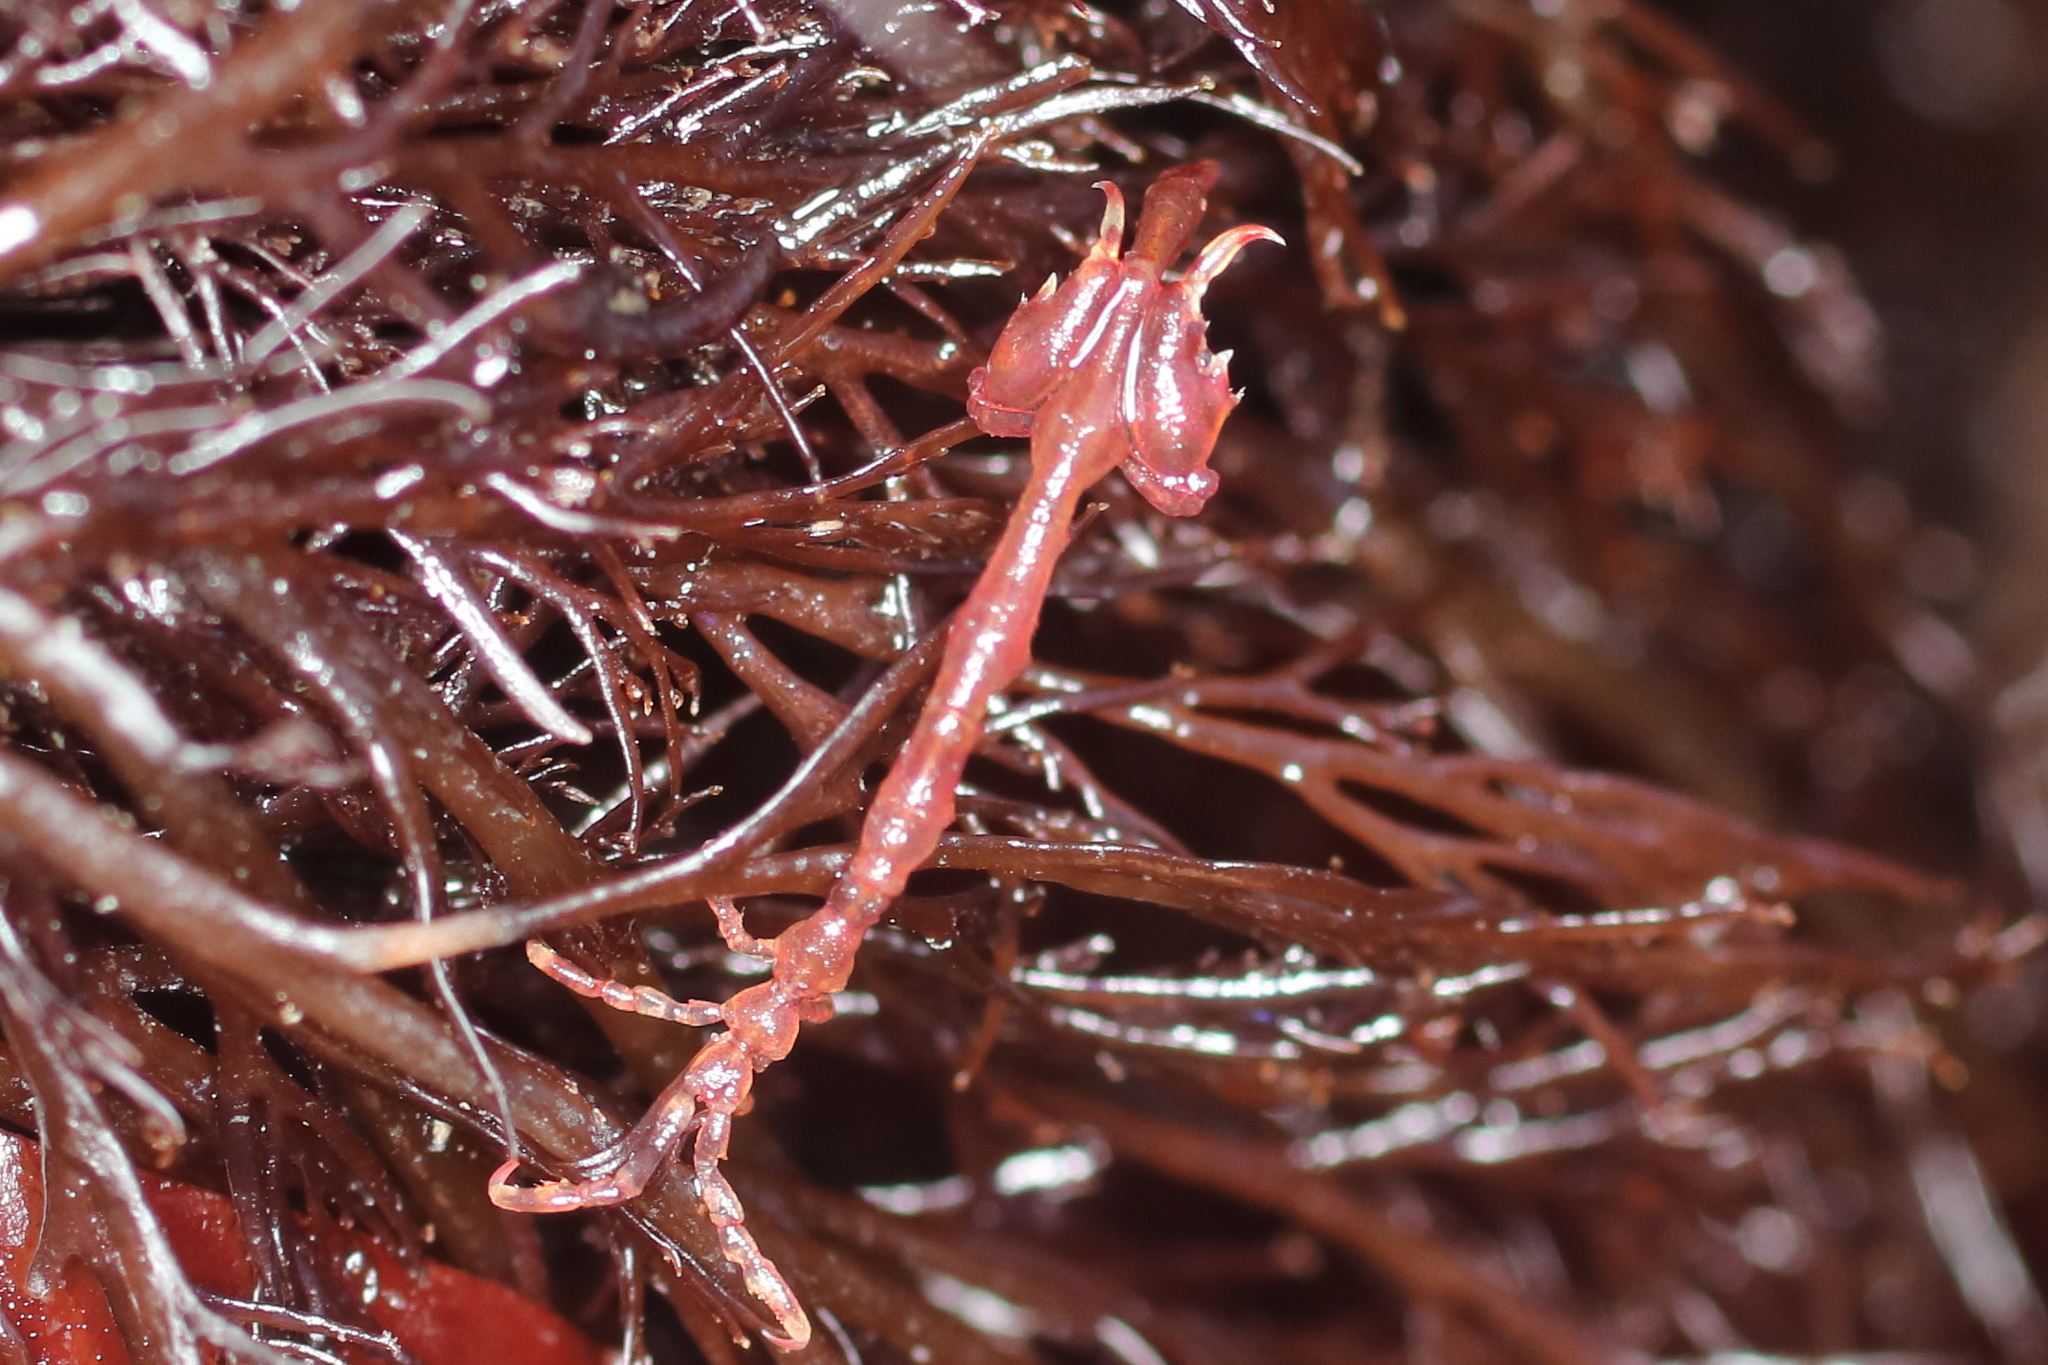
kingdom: Animalia
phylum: Arthropoda
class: Malacostraca
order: Amphipoda
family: Caprellidae
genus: Caprella
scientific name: Caprella alaskana
